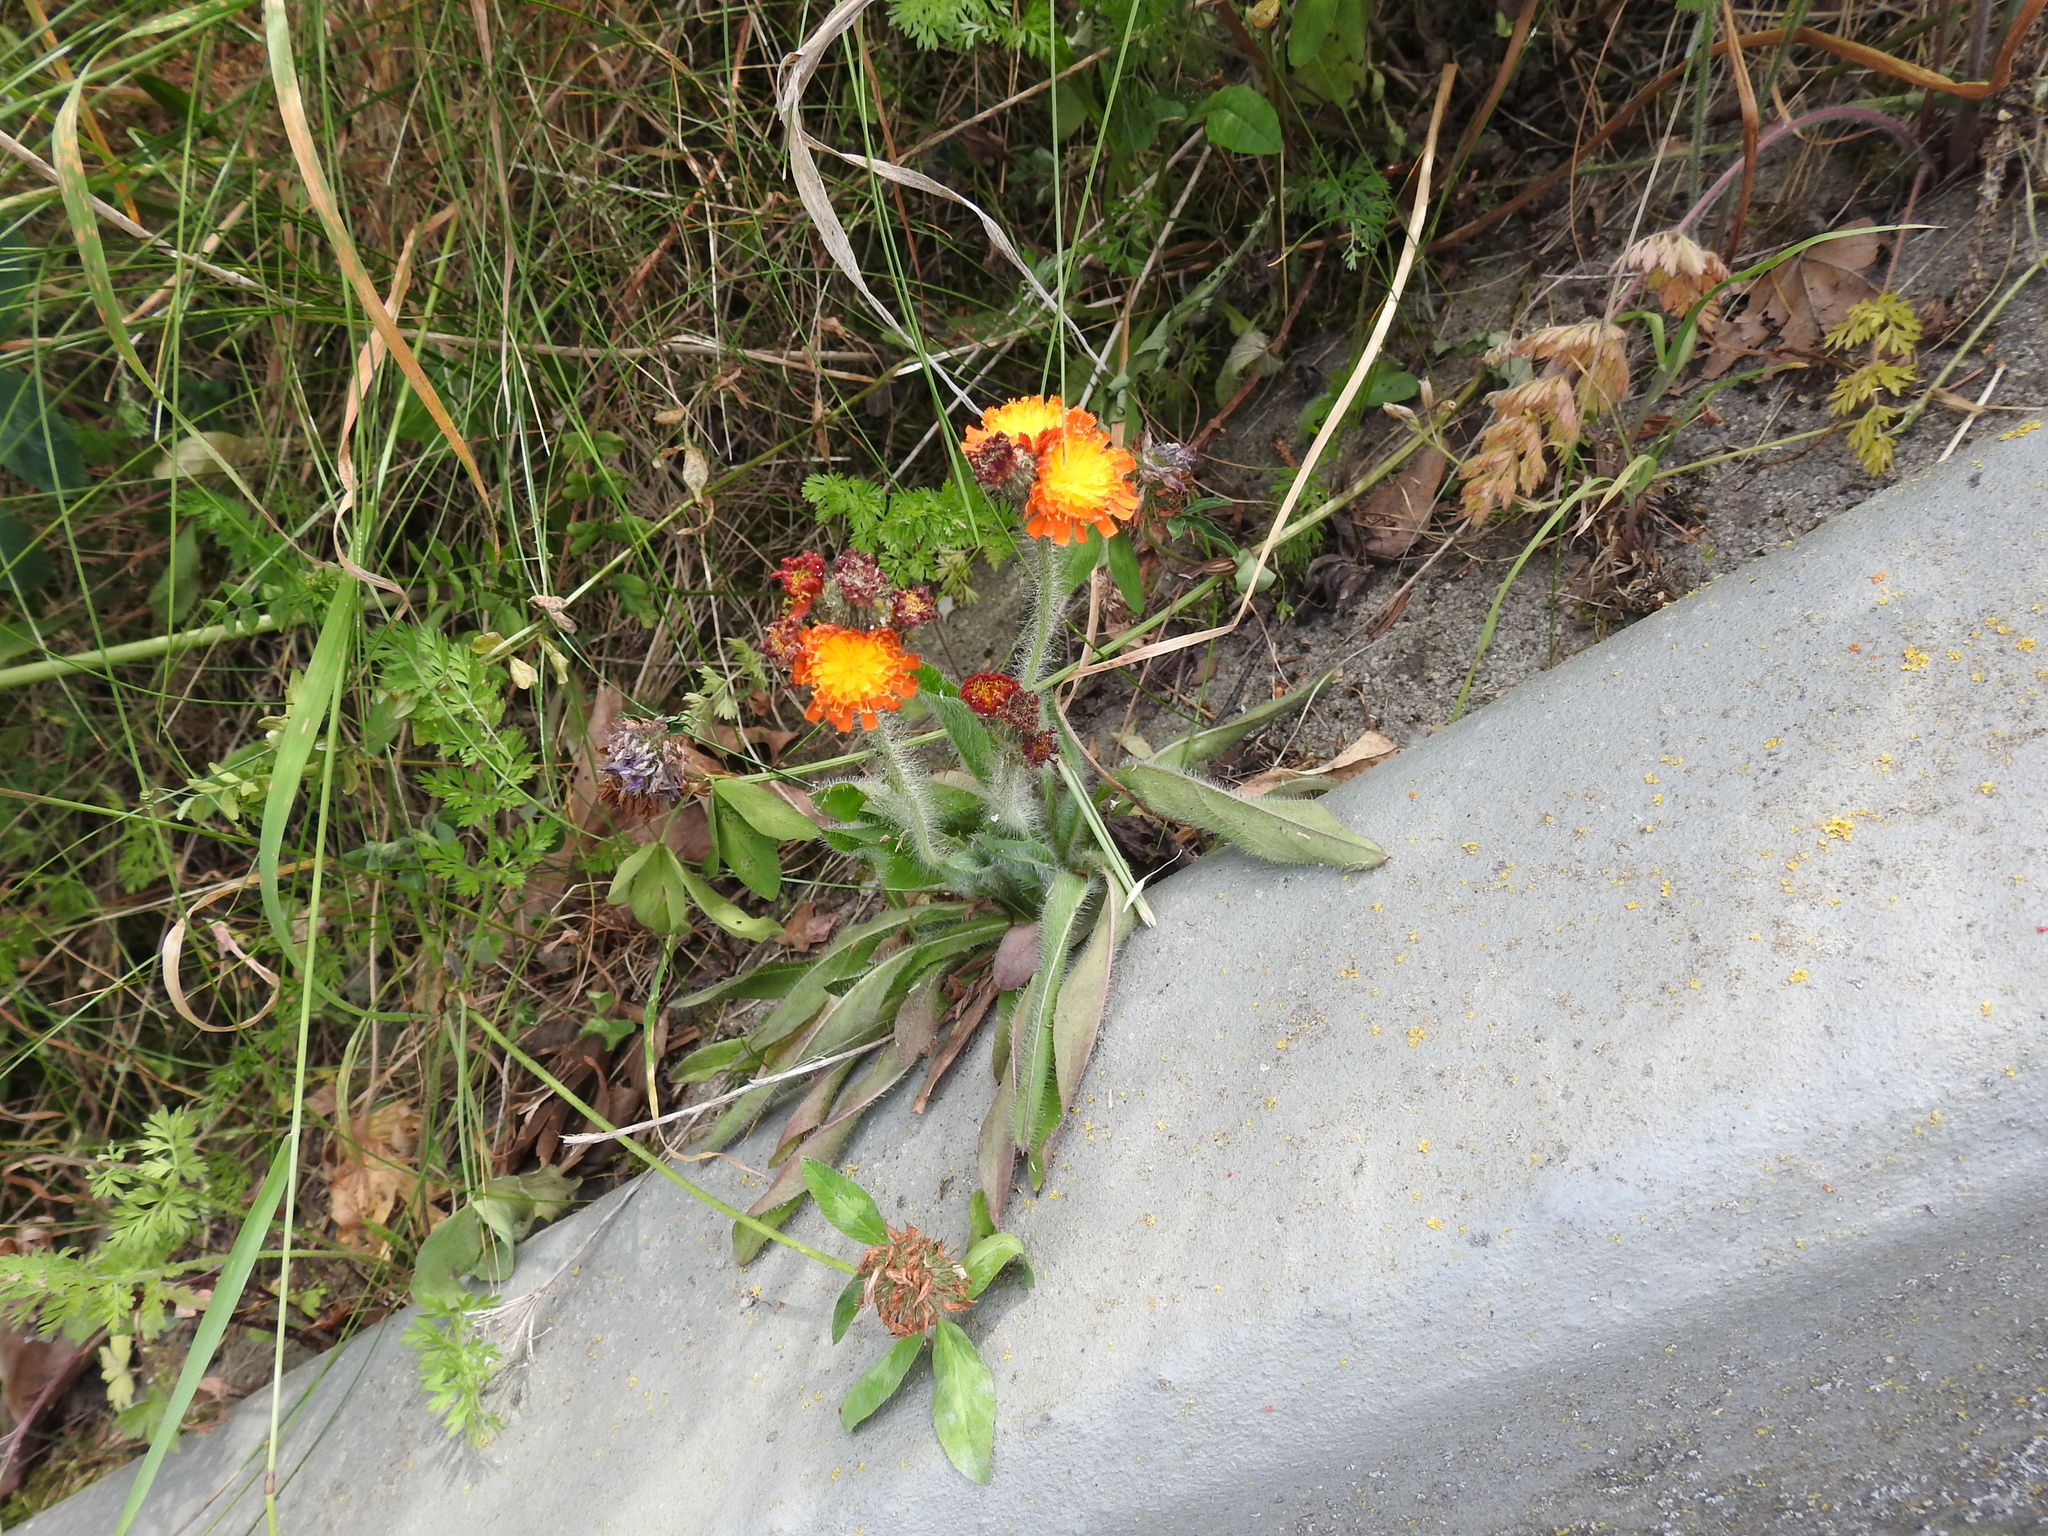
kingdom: Plantae
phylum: Tracheophyta
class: Magnoliopsida
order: Asterales
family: Asteraceae
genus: Pilosella
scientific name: Pilosella aurantiaca
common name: Fox-and-cubs
